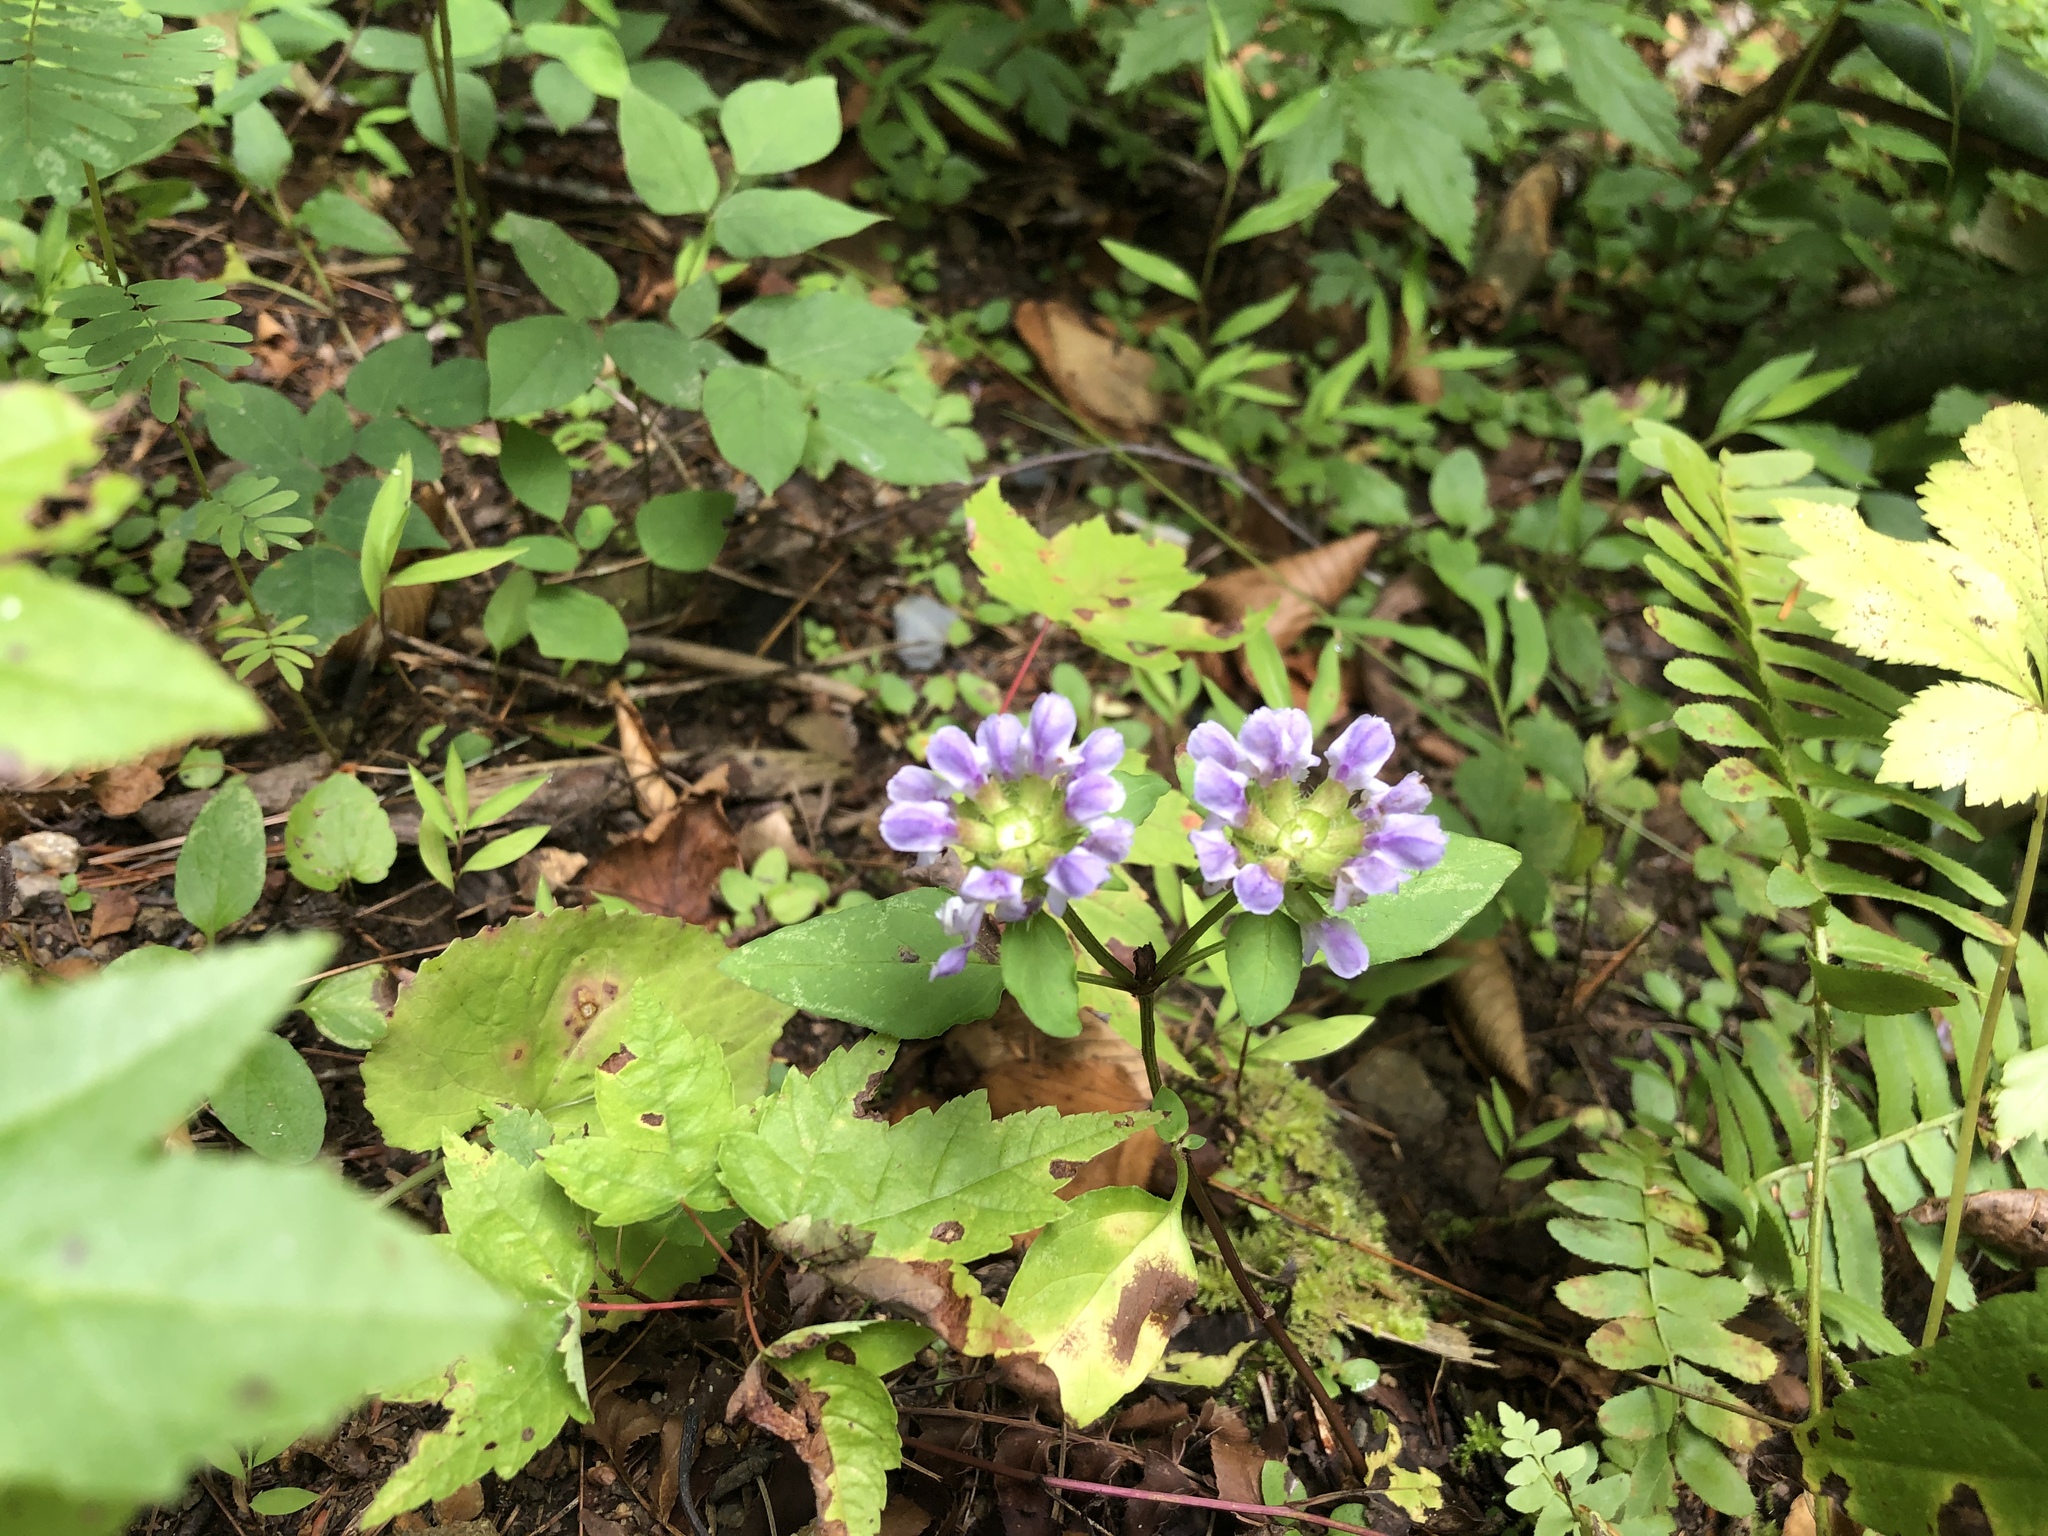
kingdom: Plantae
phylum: Tracheophyta
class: Magnoliopsida
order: Lamiales
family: Lamiaceae
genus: Prunella
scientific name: Prunella vulgaris
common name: Heal-all
